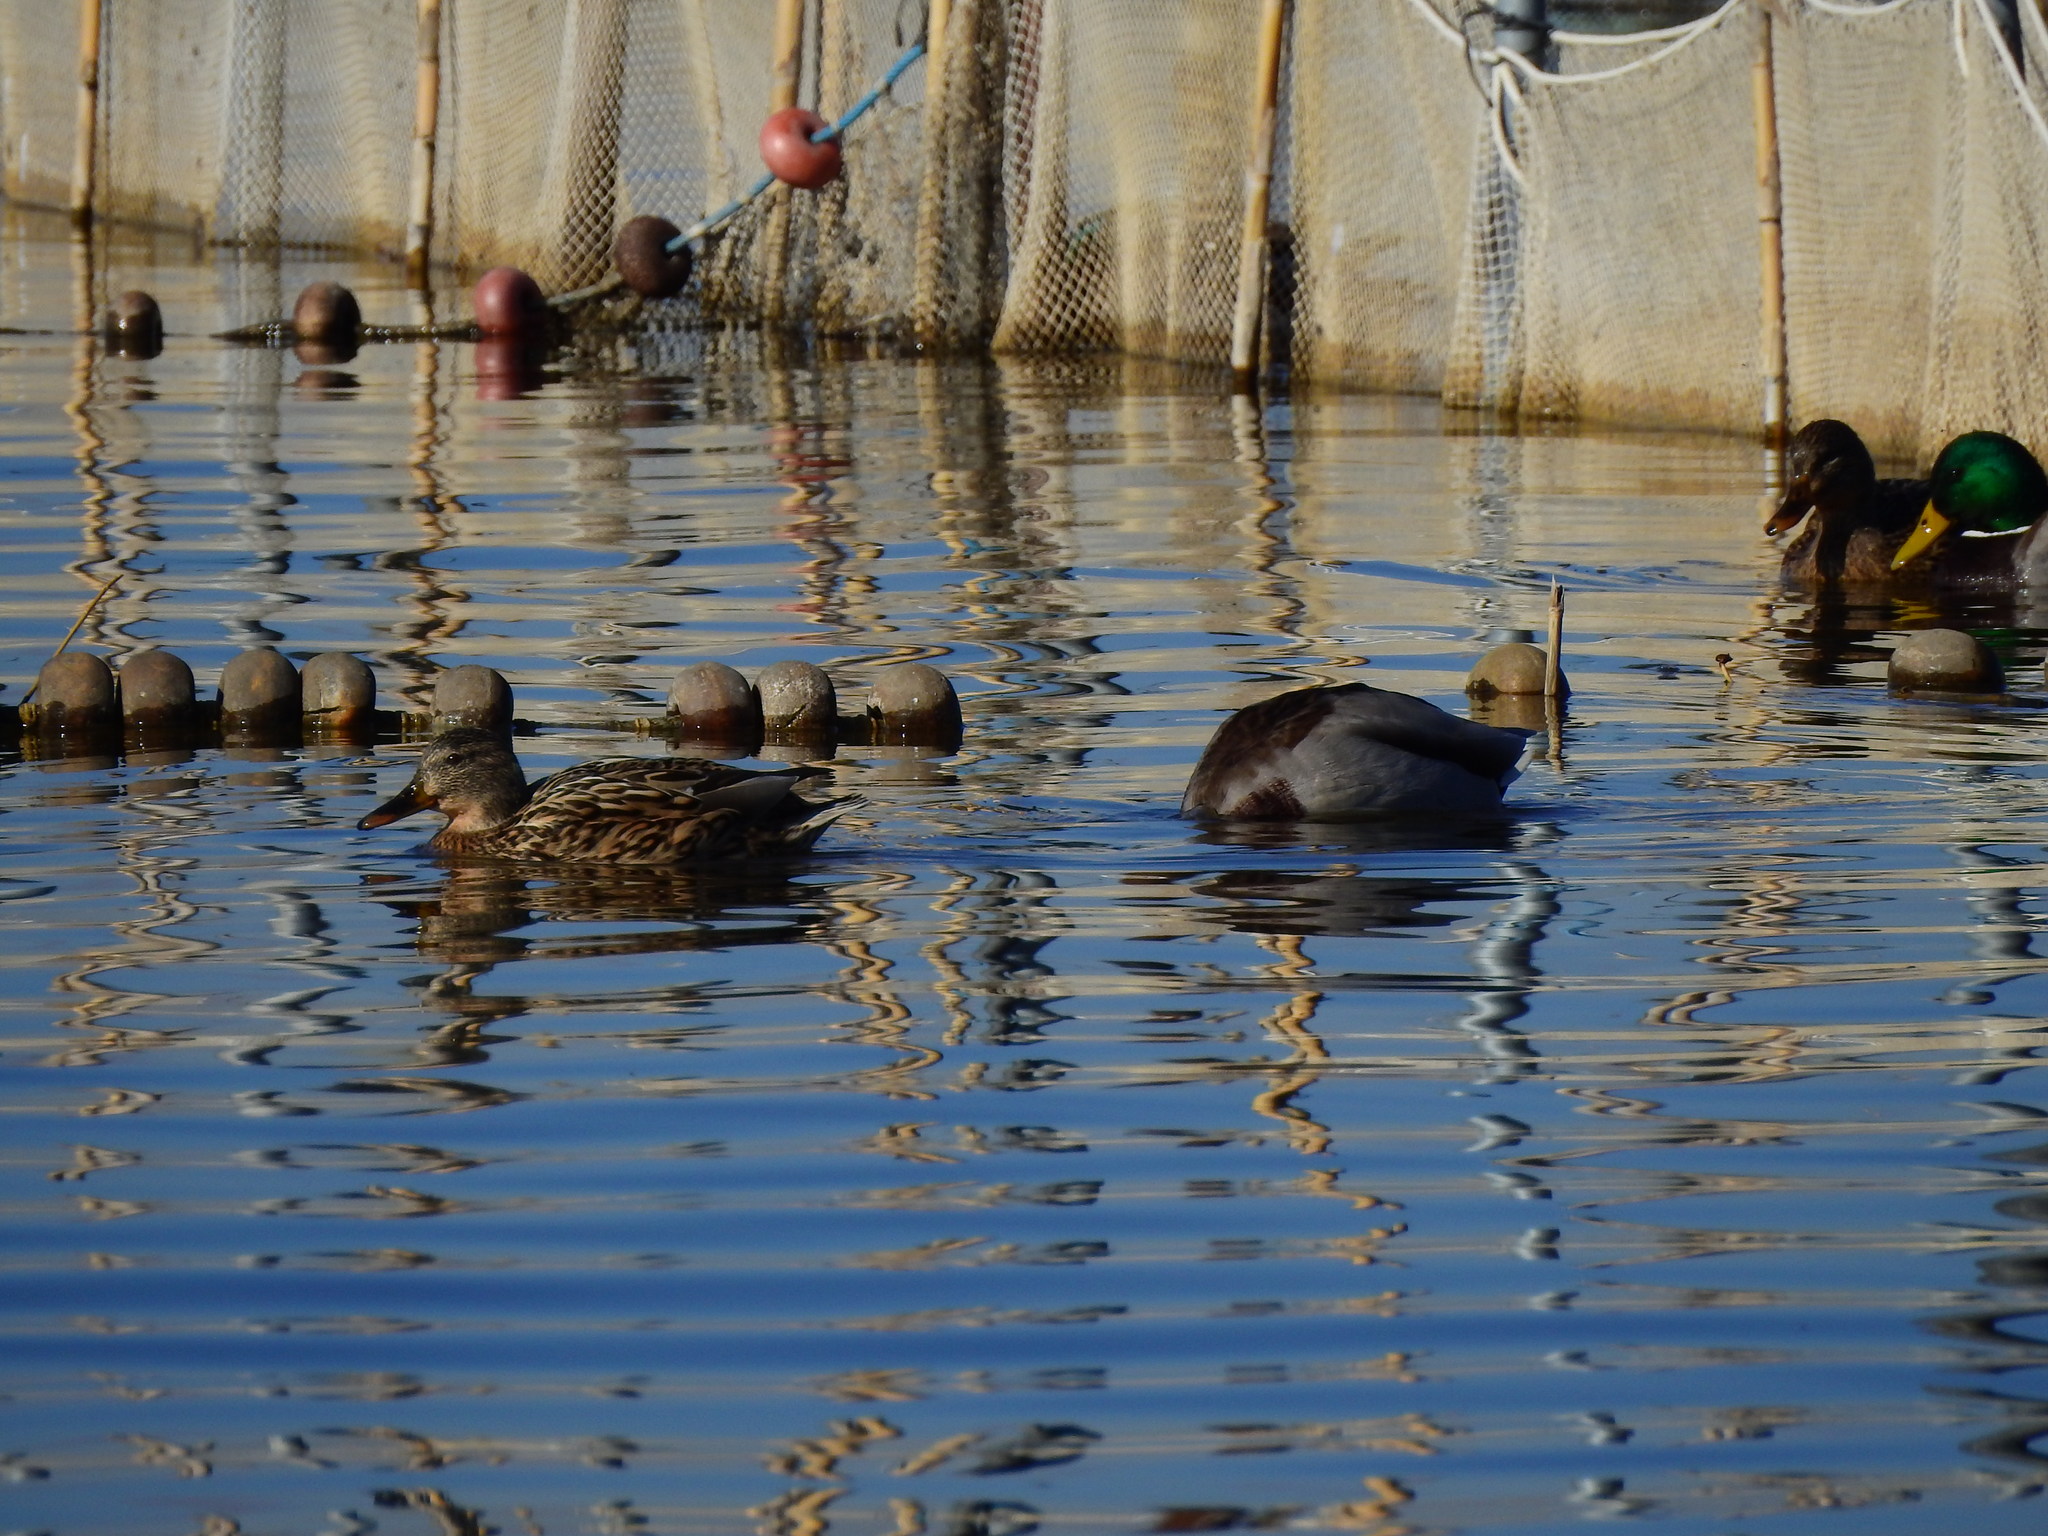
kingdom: Animalia
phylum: Chordata
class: Aves
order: Anseriformes
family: Anatidae
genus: Anas
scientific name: Anas platyrhynchos
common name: Mallard
